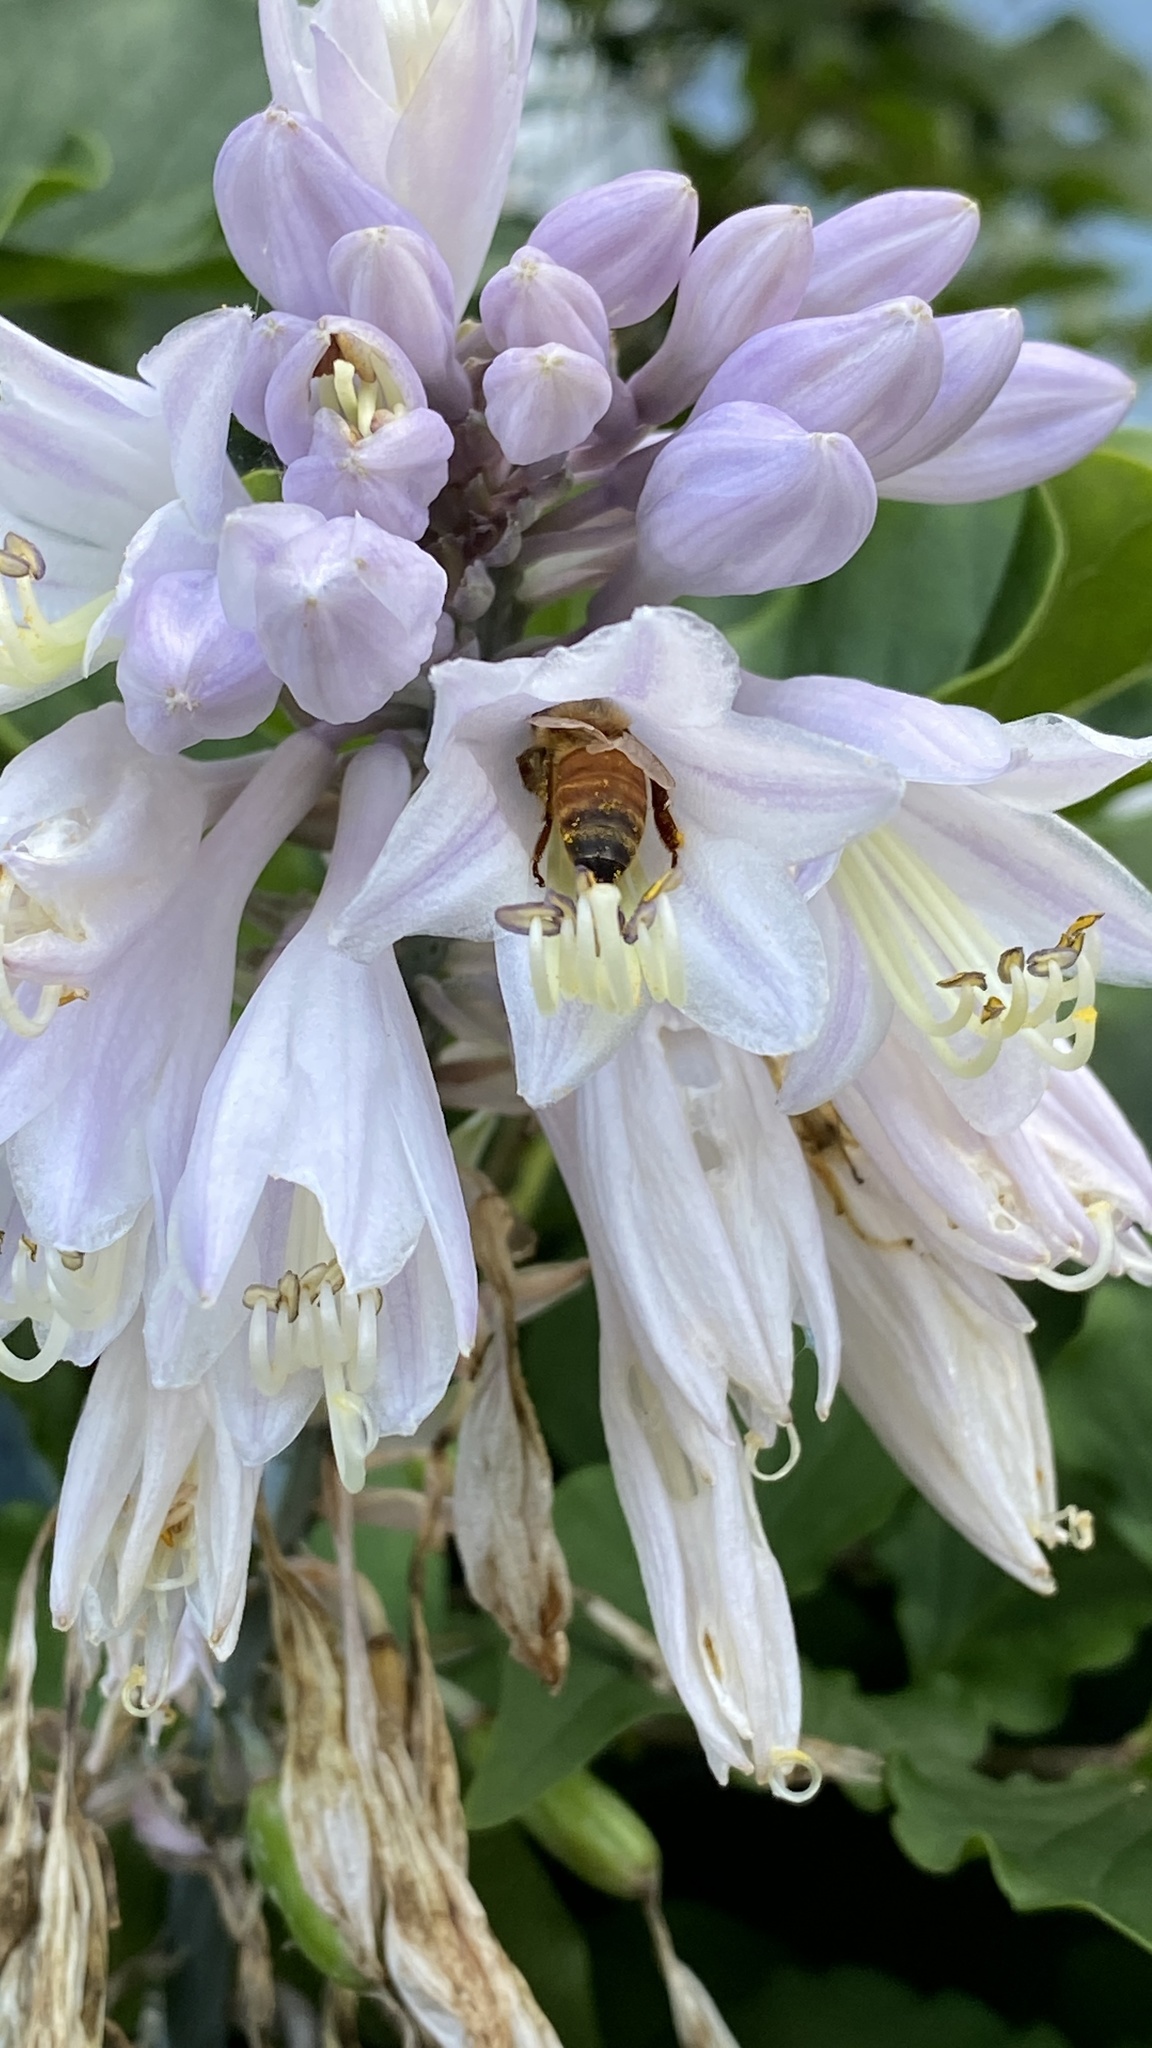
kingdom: Animalia
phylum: Arthropoda
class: Insecta
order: Hymenoptera
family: Apidae
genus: Apis
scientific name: Apis mellifera
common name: Honey bee
